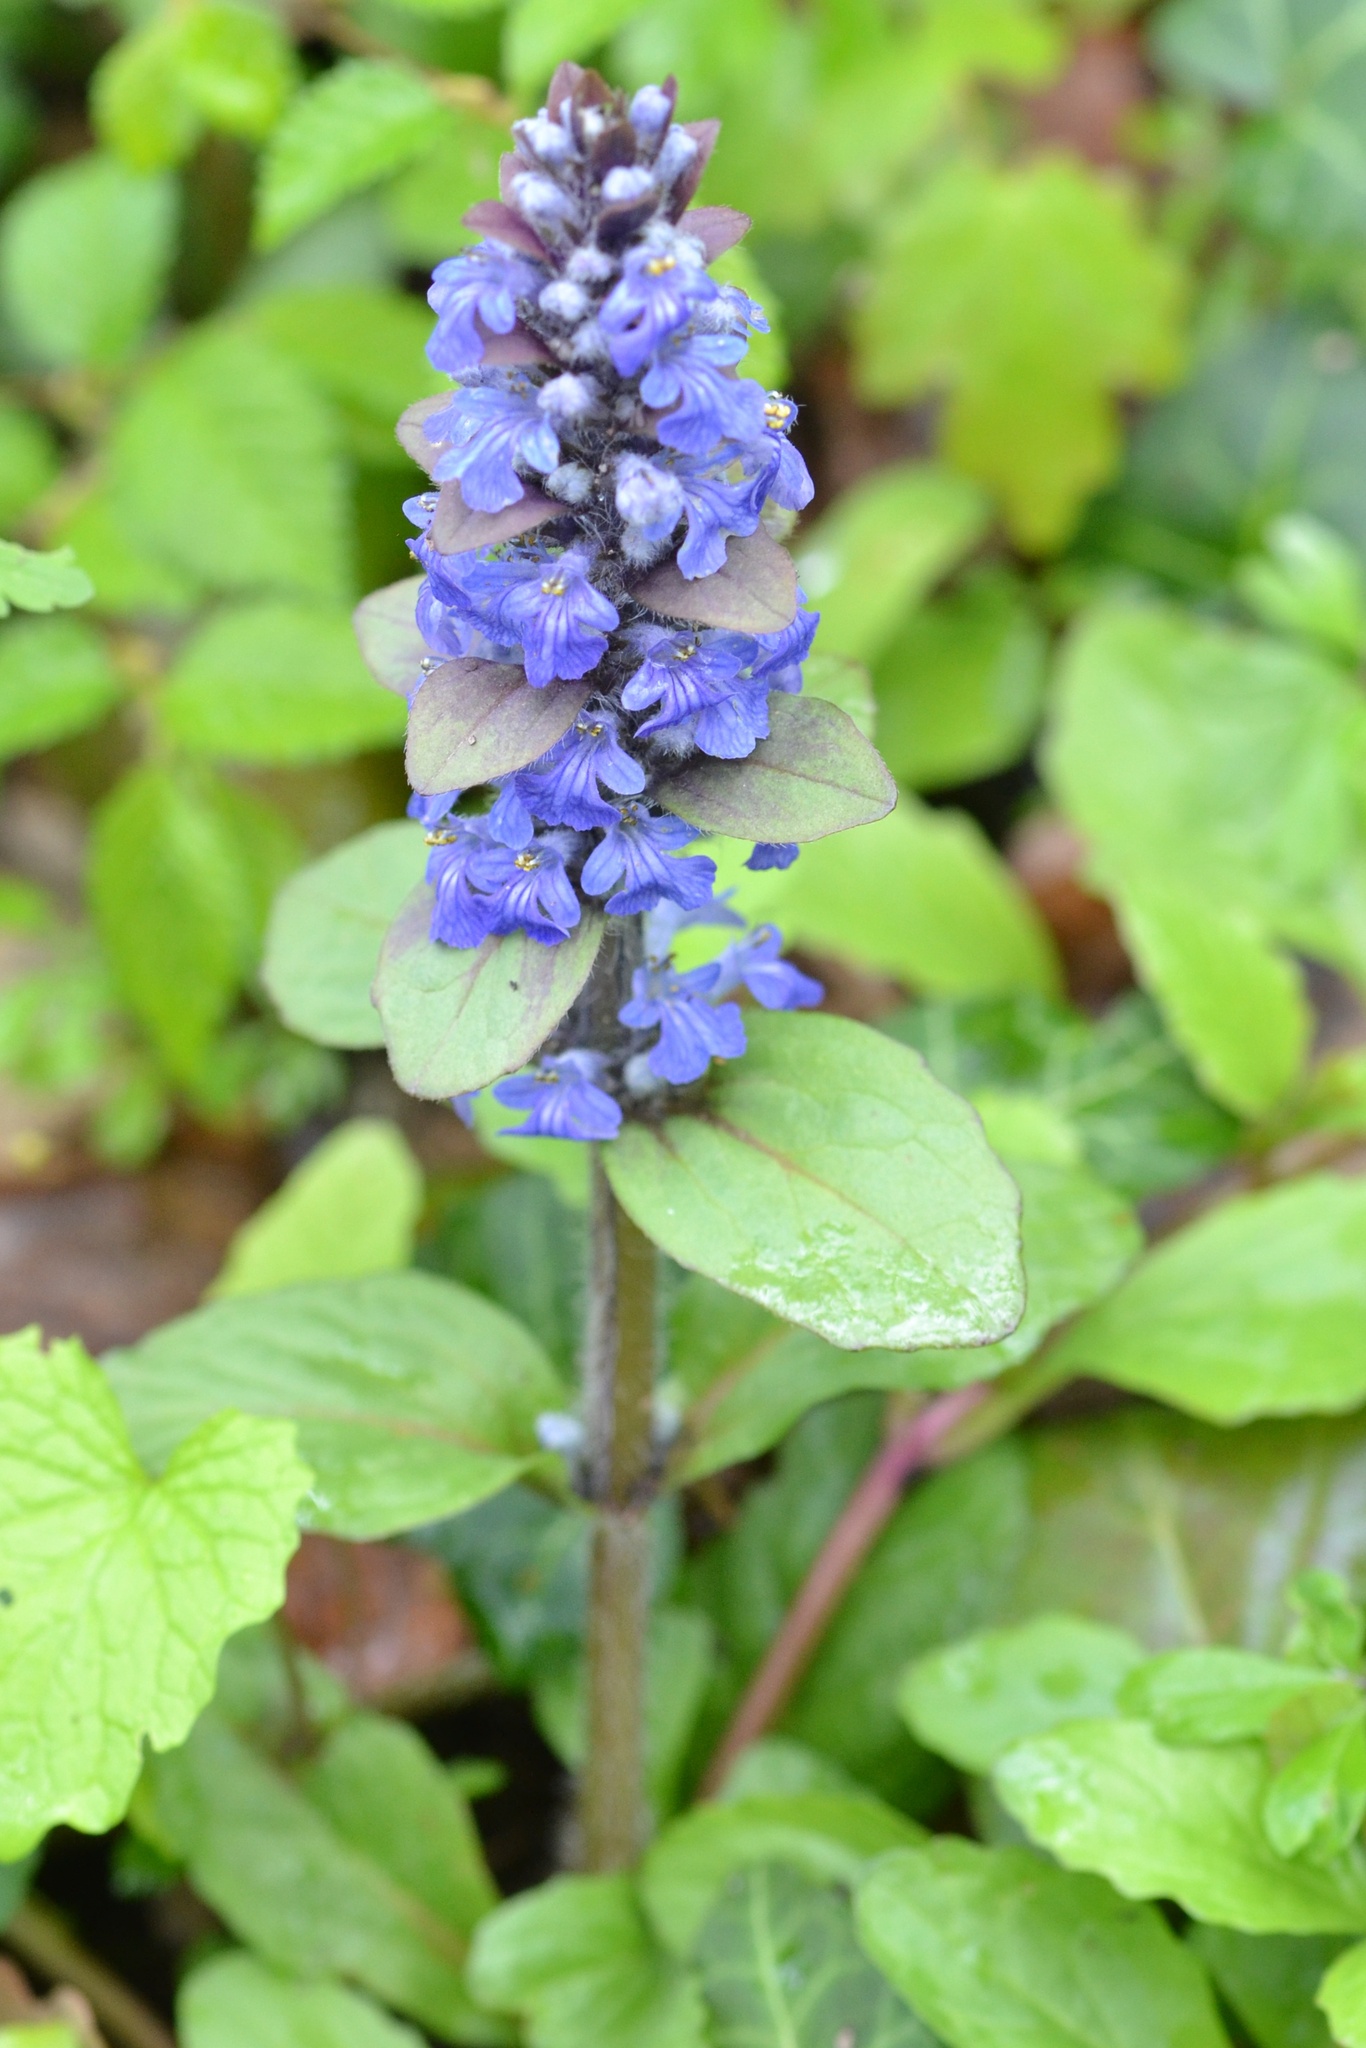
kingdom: Plantae
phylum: Tracheophyta
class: Magnoliopsida
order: Lamiales
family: Lamiaceae
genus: Ajuga
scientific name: Ajuga reptans
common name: Bugle
